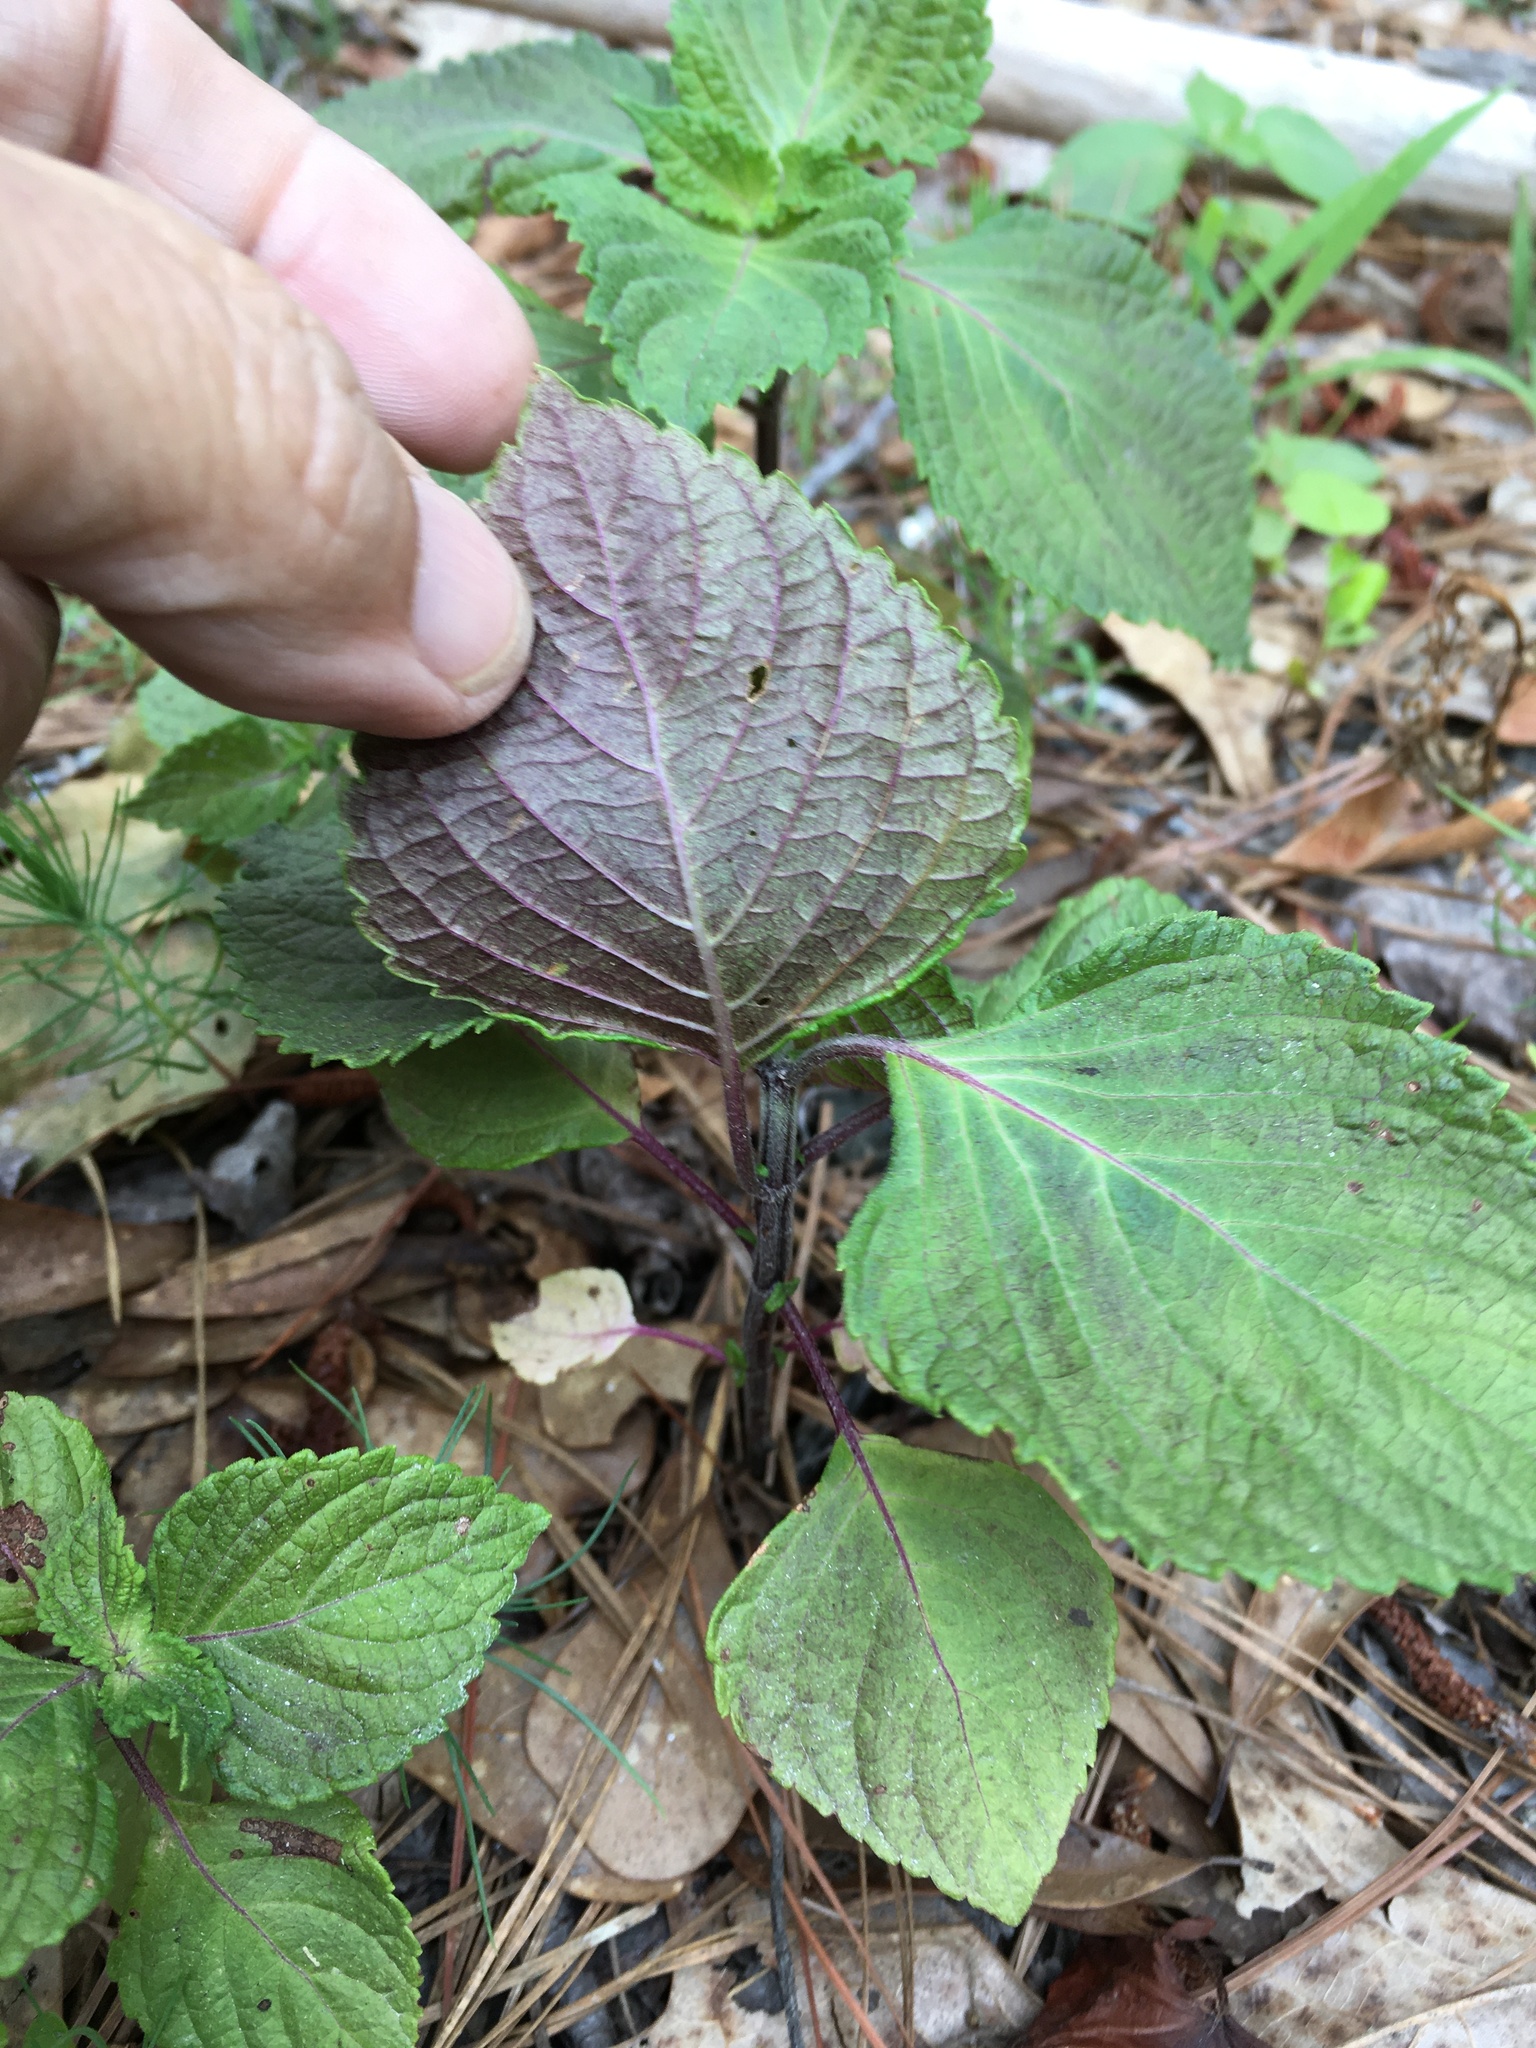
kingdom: Plantae
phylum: Tracheophyta
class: Magnoliopsida
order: Lamiales
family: Lamiaceae
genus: Perilla
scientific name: Perilla frutescens
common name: Perilla
